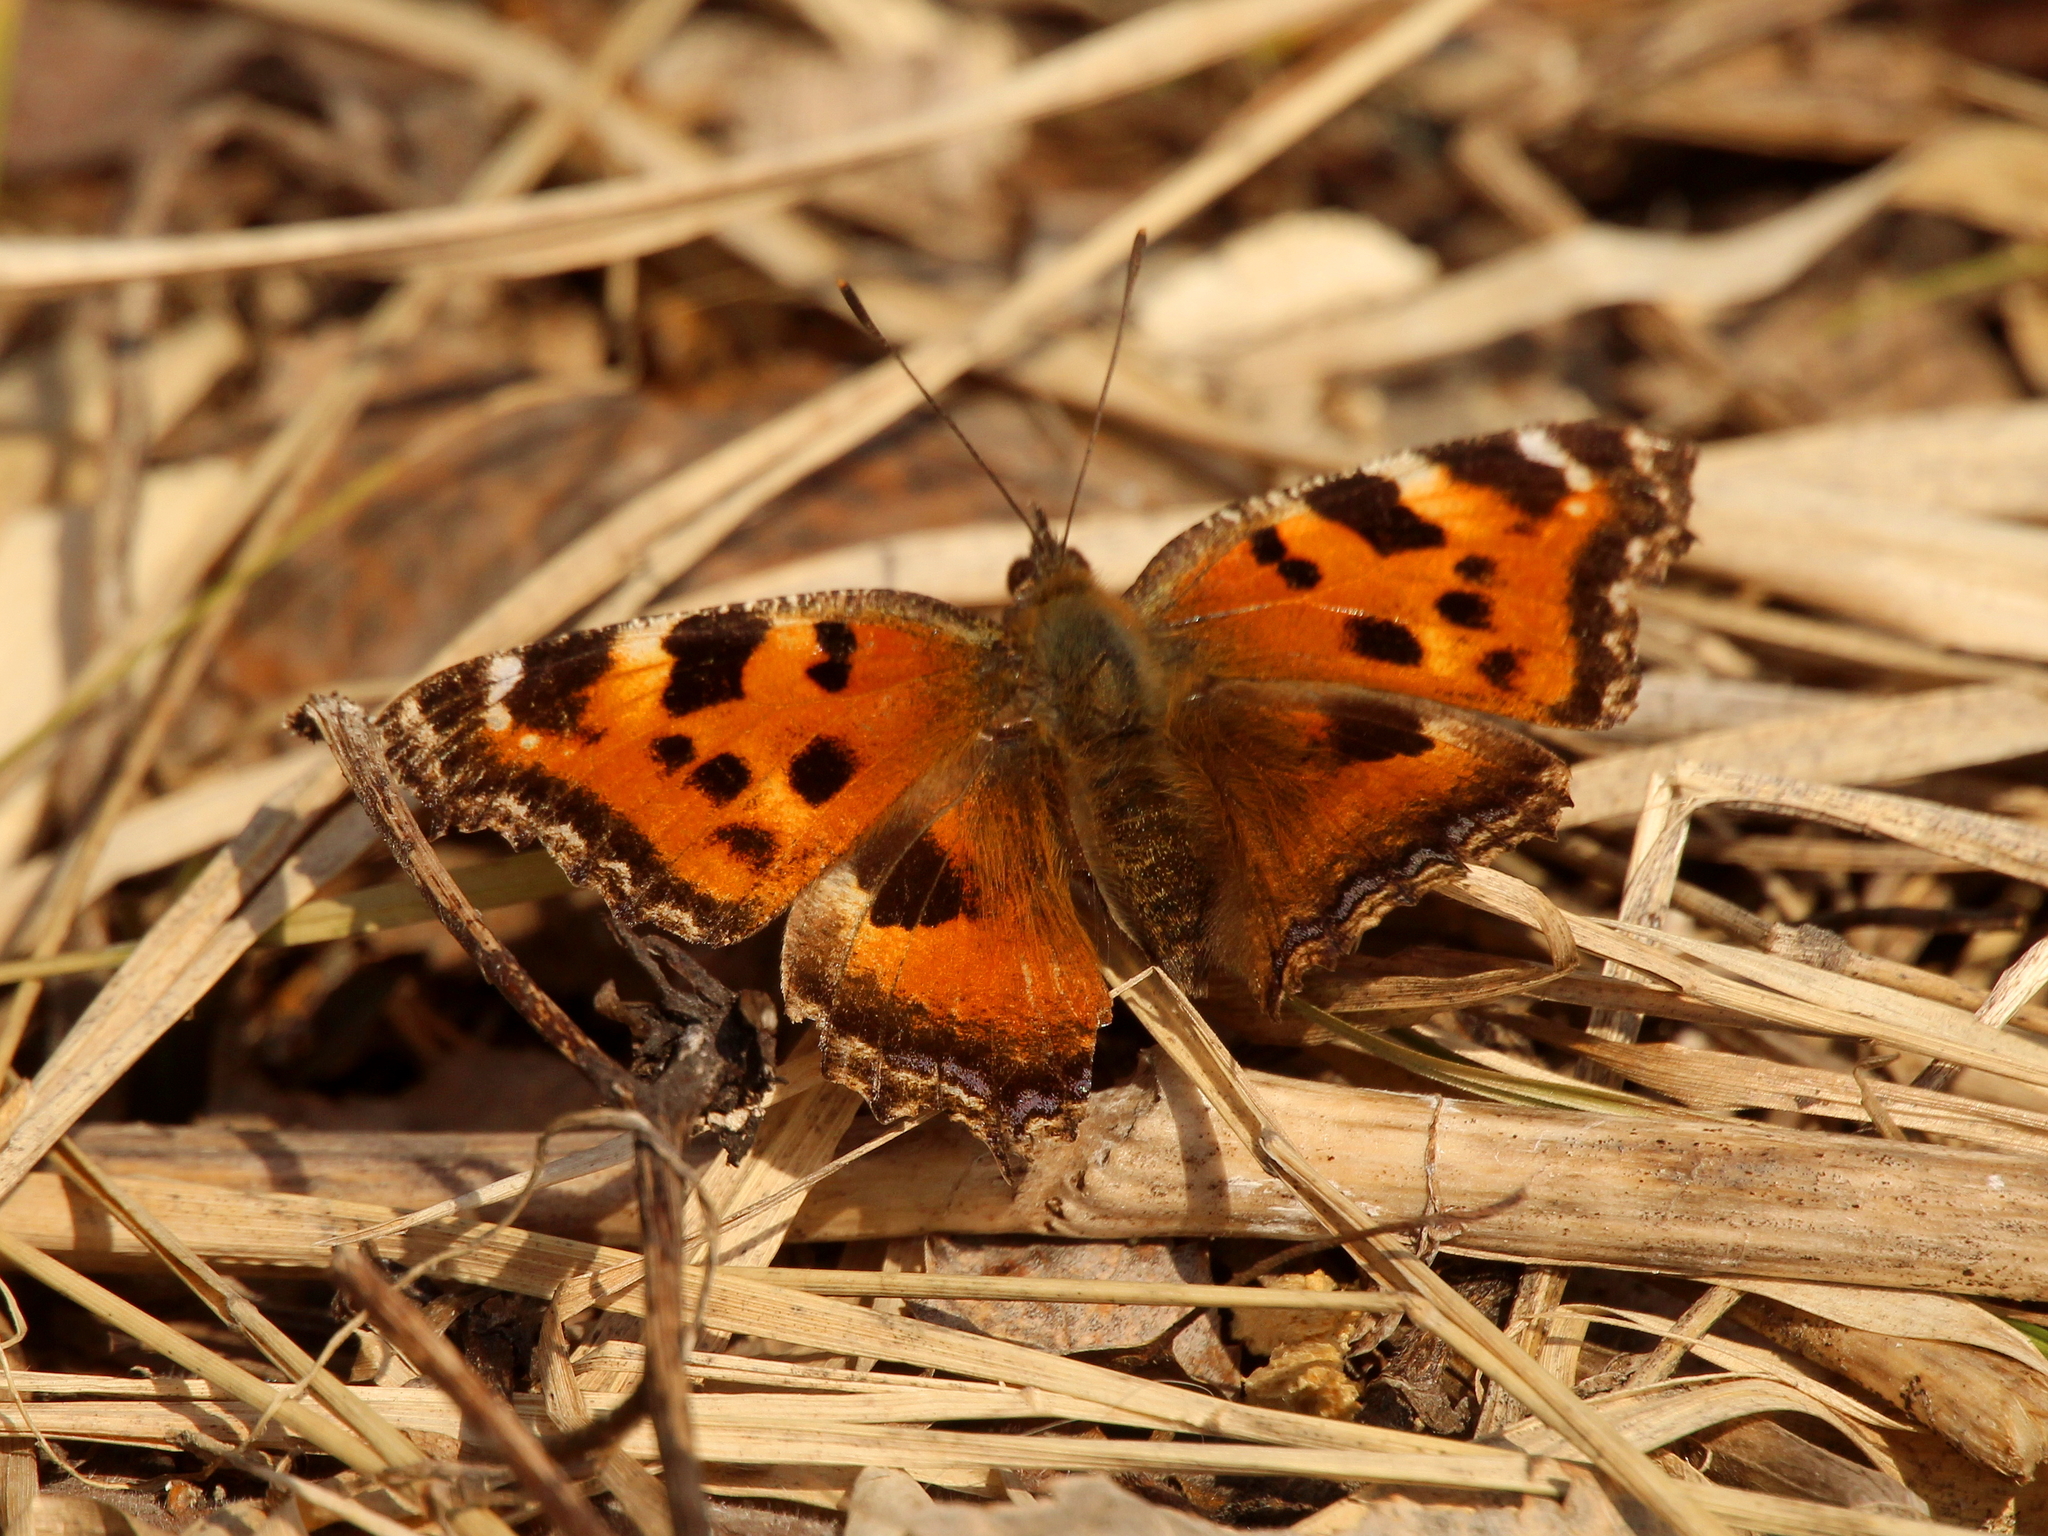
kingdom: Animalia
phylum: Arthropoda
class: Insecta
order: Lepidoptera
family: Nymphalidae
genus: Nymphalis
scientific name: Nymphalis xanthomelas
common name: Scarce tortoiseshell
